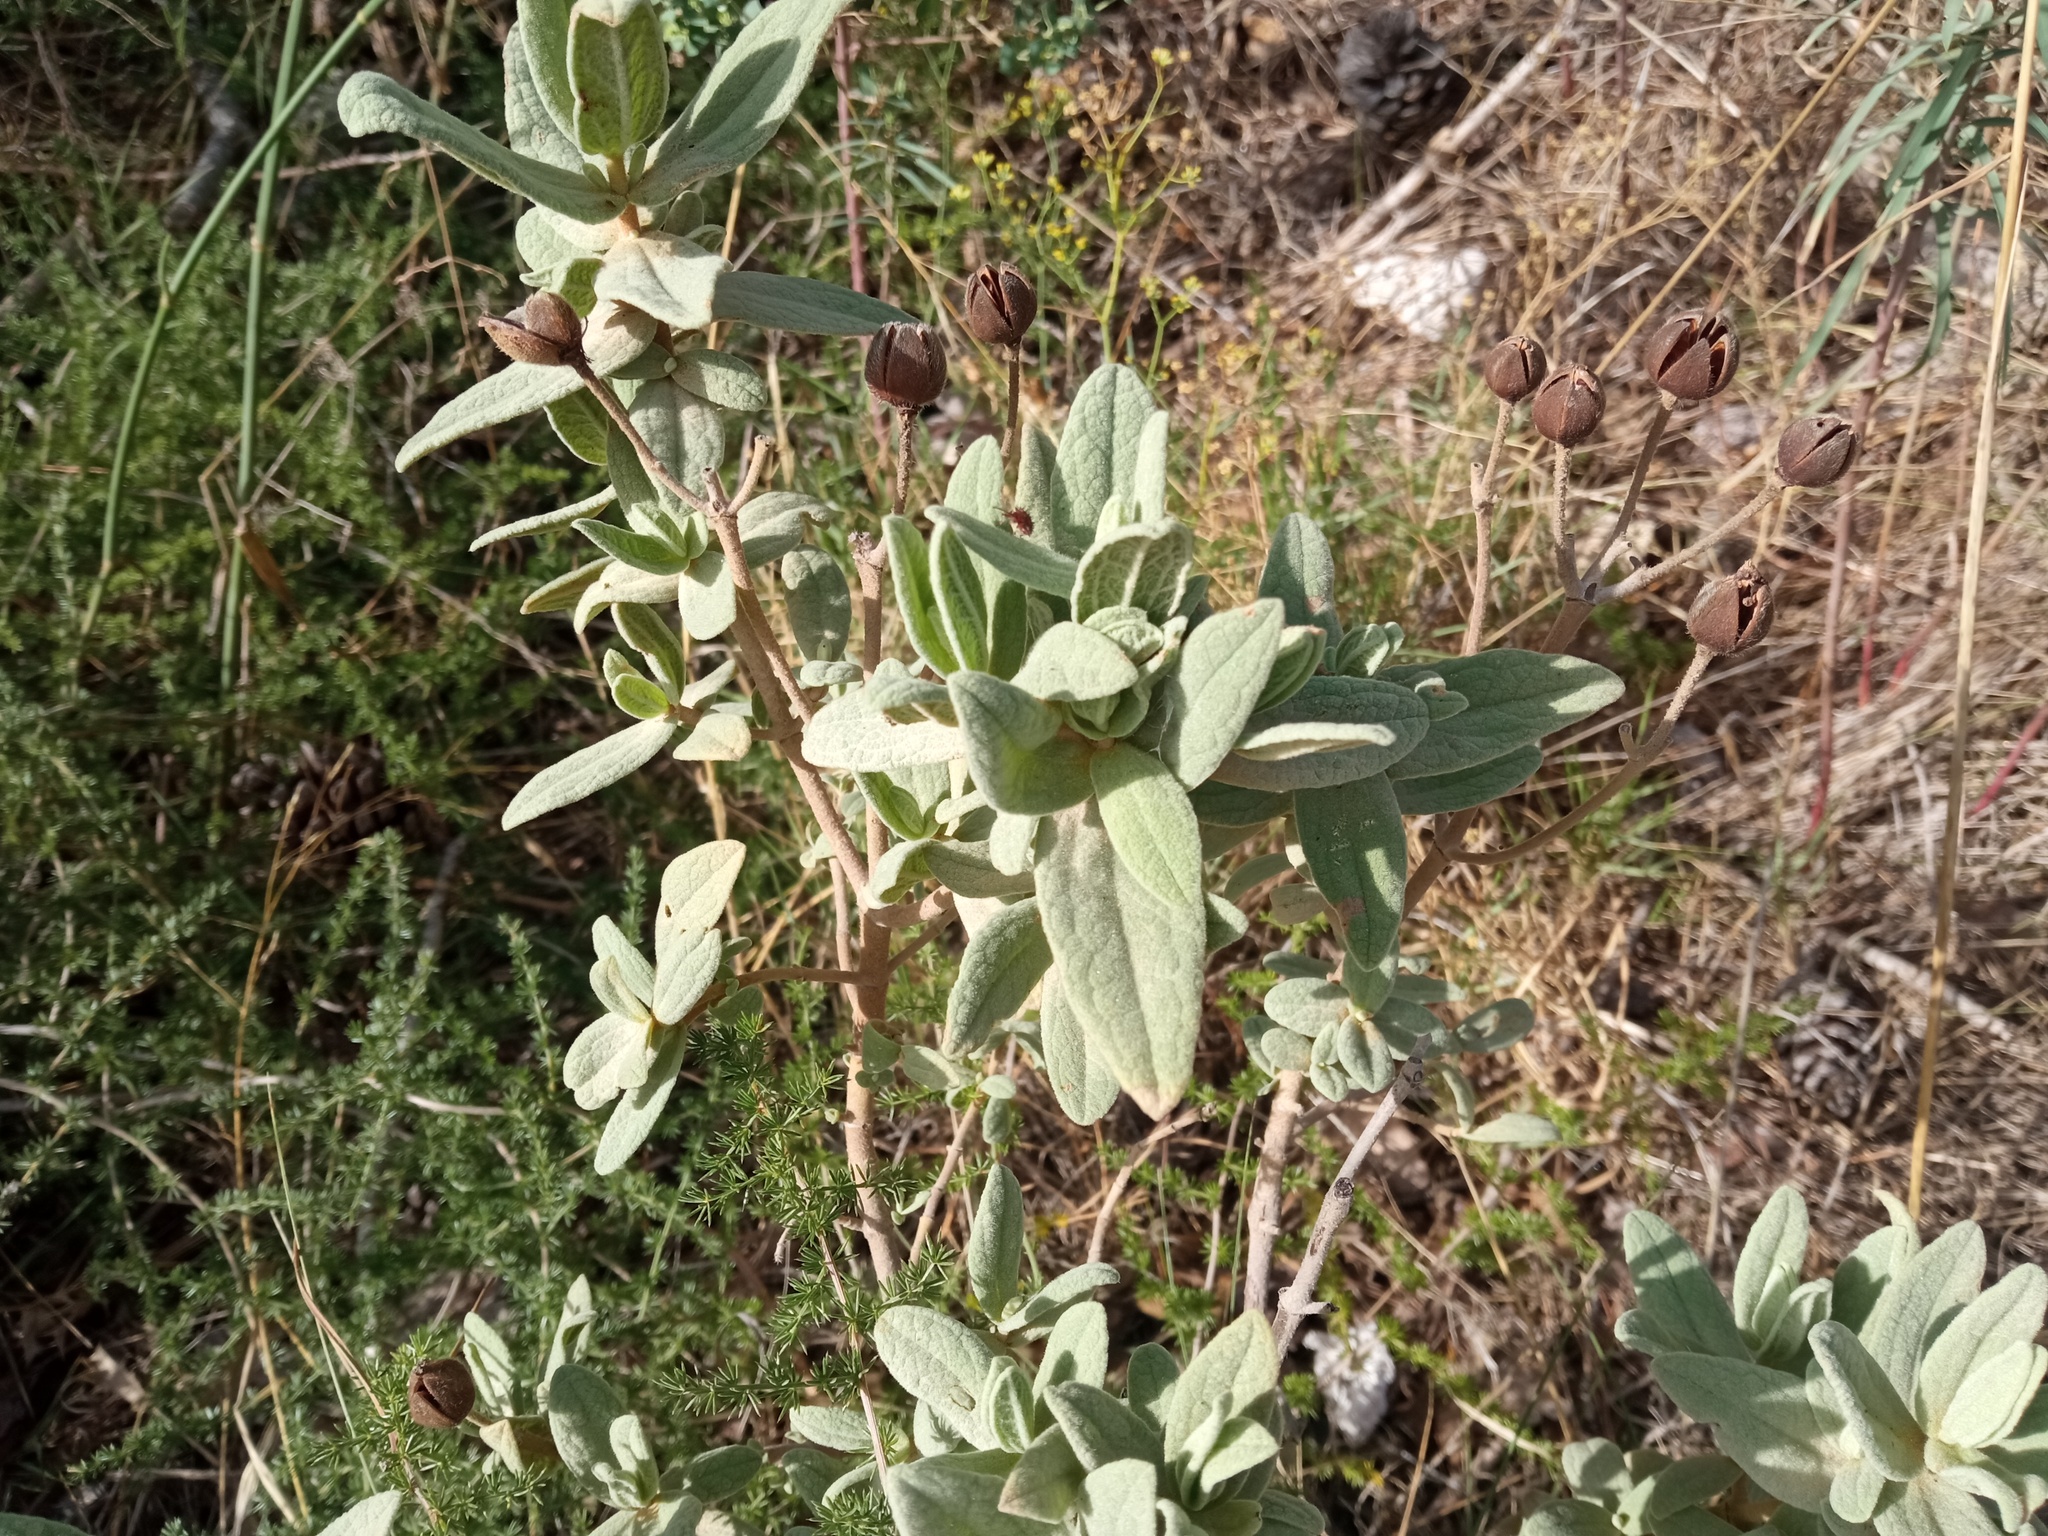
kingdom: Plantae
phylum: Tracheophyta
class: Magnoliopsida
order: Malvales
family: Cistaceae
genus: Cistus
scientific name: Cistus albidus
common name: White-leaf rock-rose
